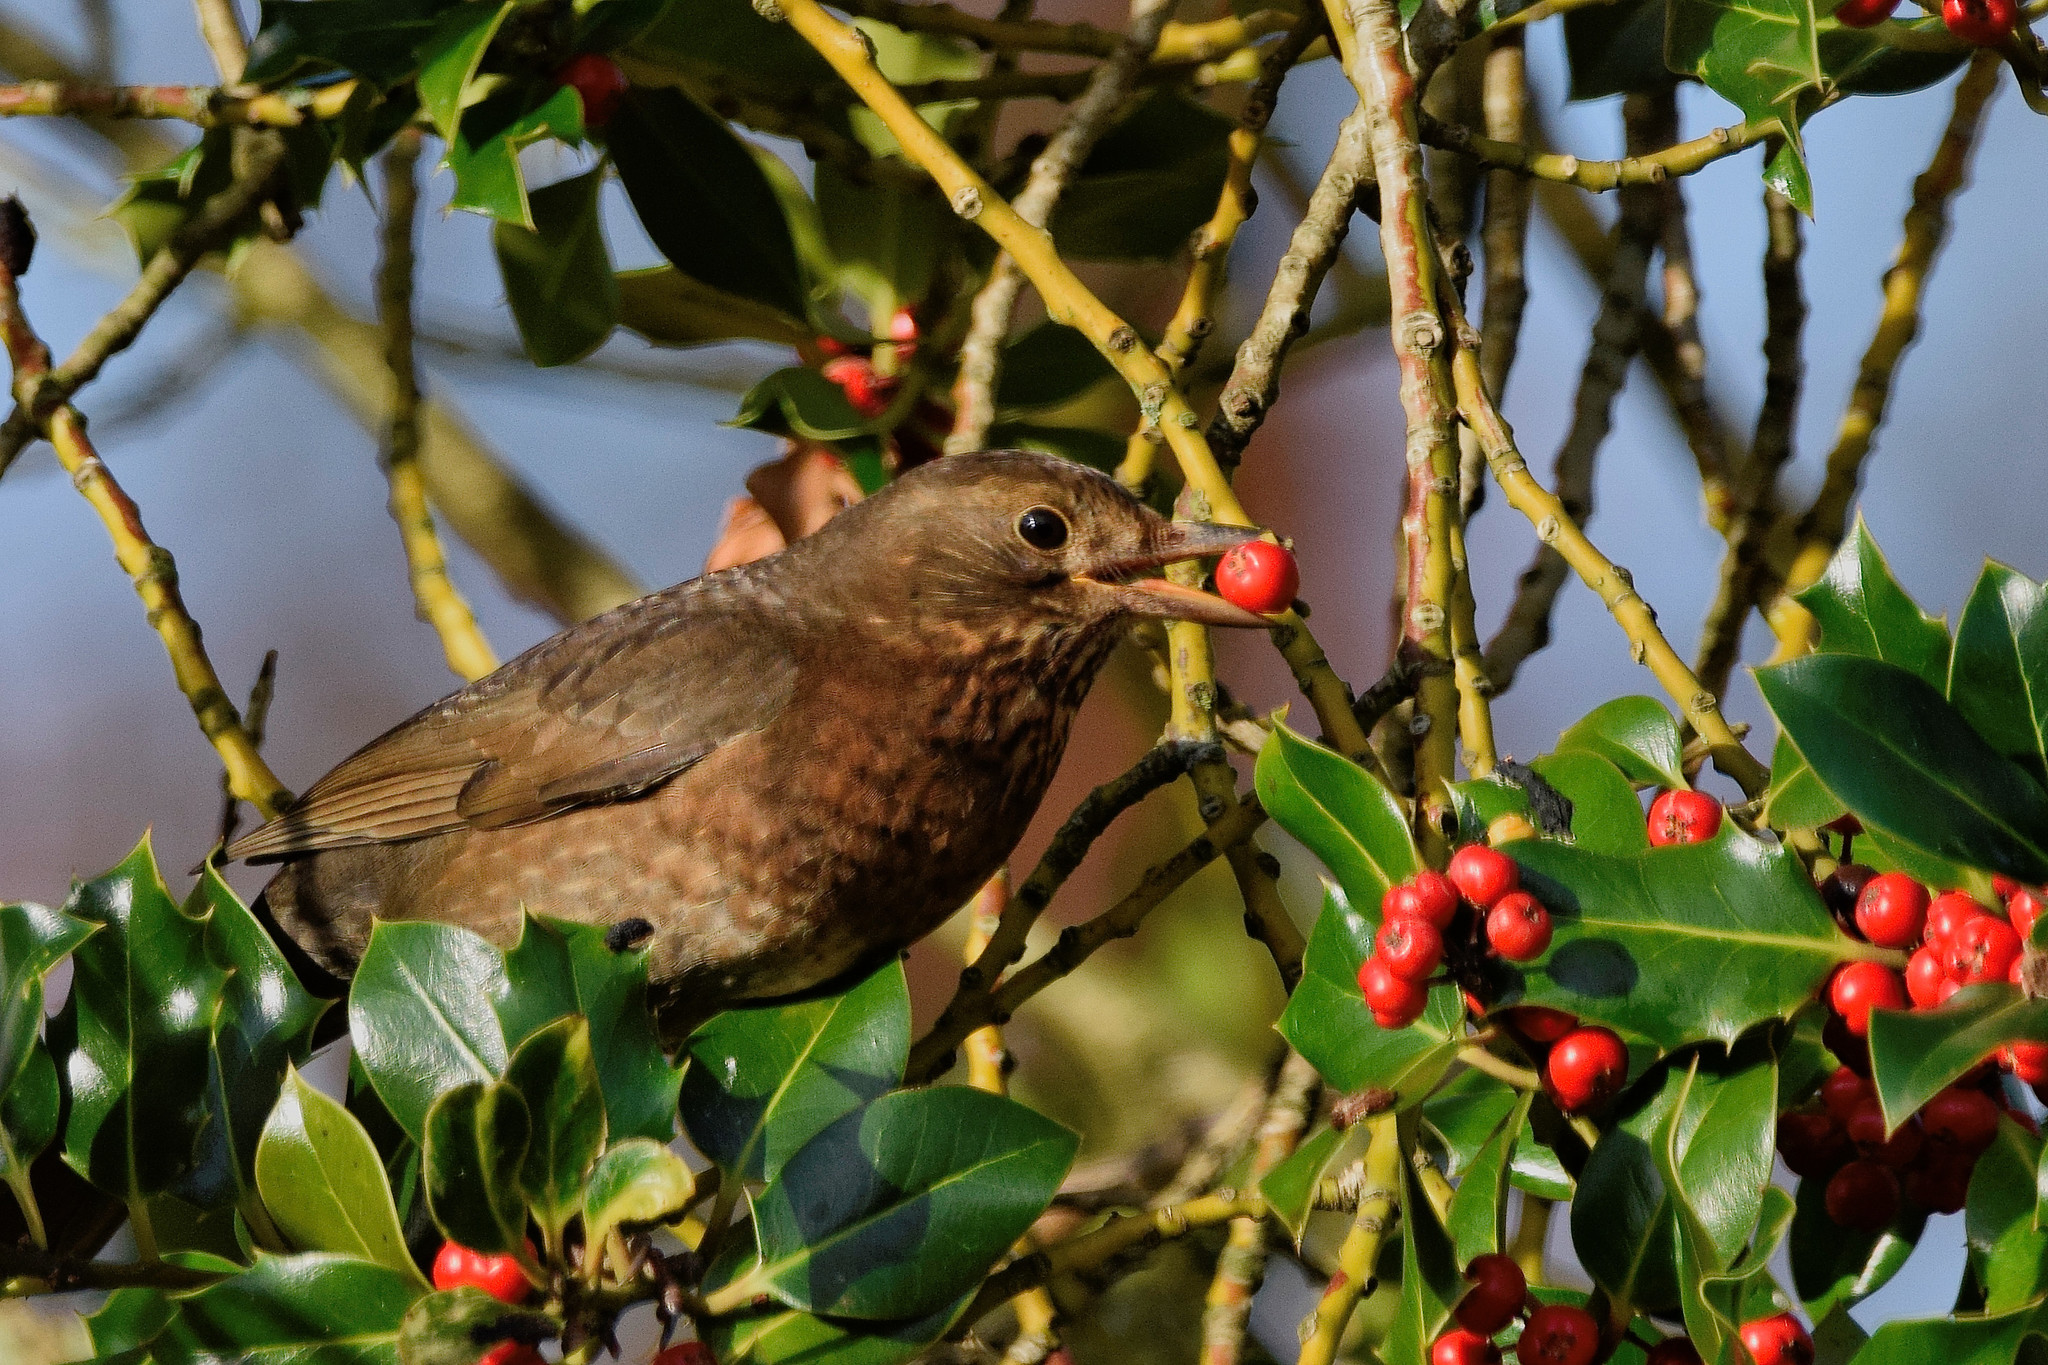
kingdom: Animalia
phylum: Chordata
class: Aves
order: Passeriformes
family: Turdidae
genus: Turdus
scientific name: Turdus merula
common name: Common blackbird
